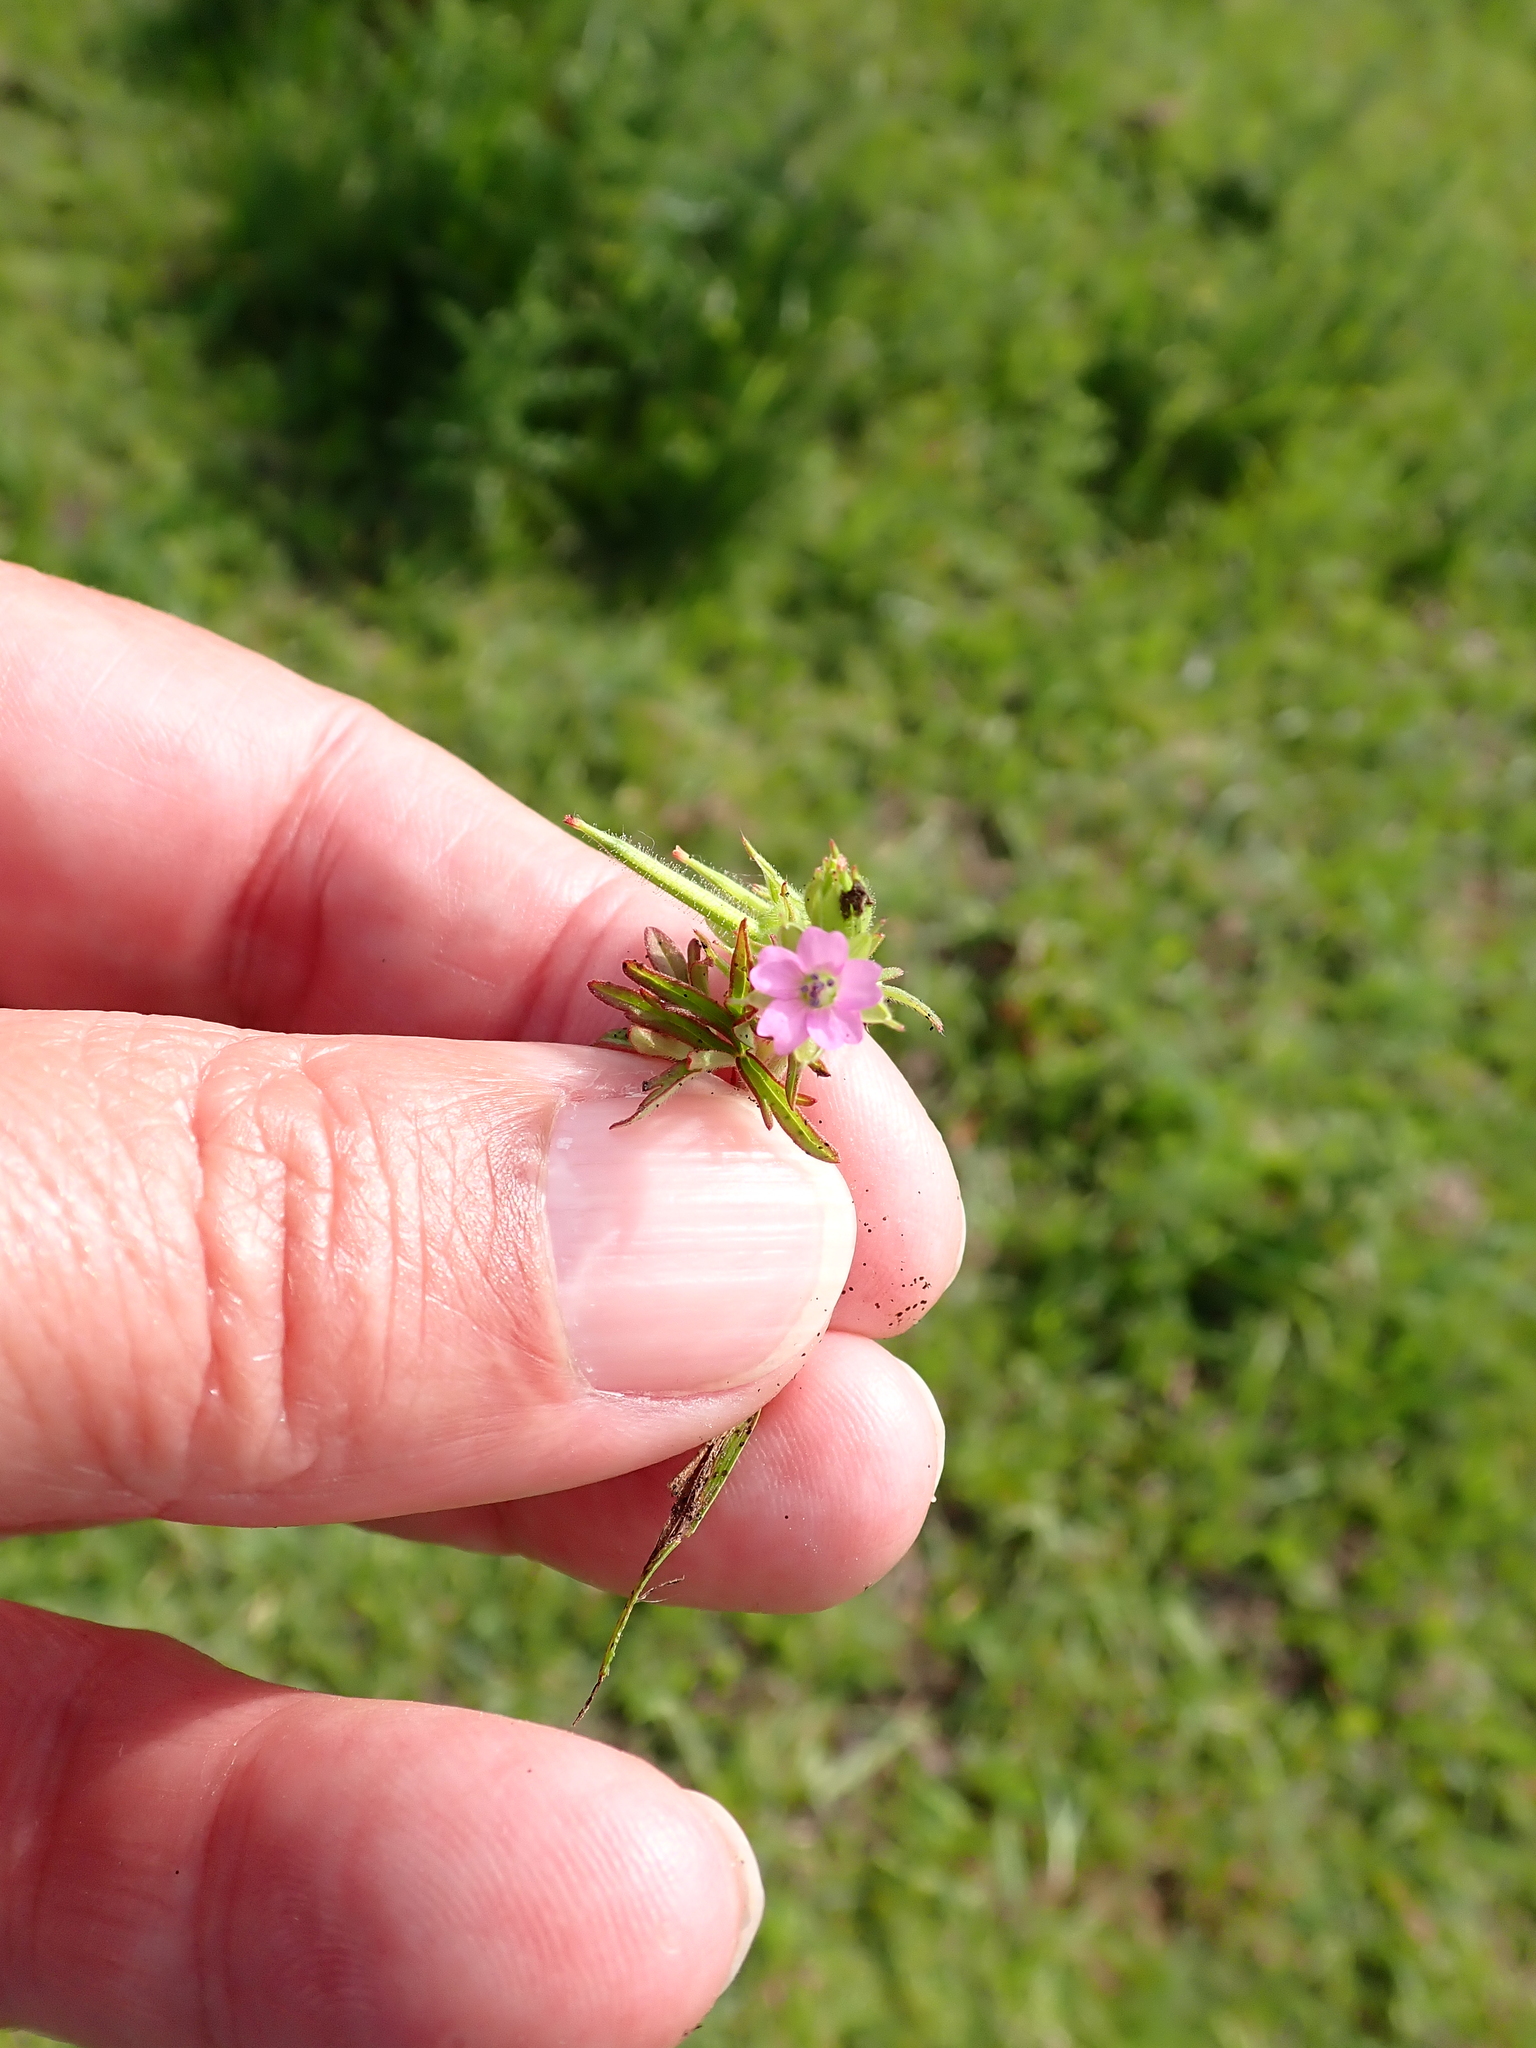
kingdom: Plantae
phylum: Tracheophyta
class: Magnoliopsida
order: Geraniales
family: Geraniaceae
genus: Geranium
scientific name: Geranium dissectum
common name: Cut-leaved crane's-bill
